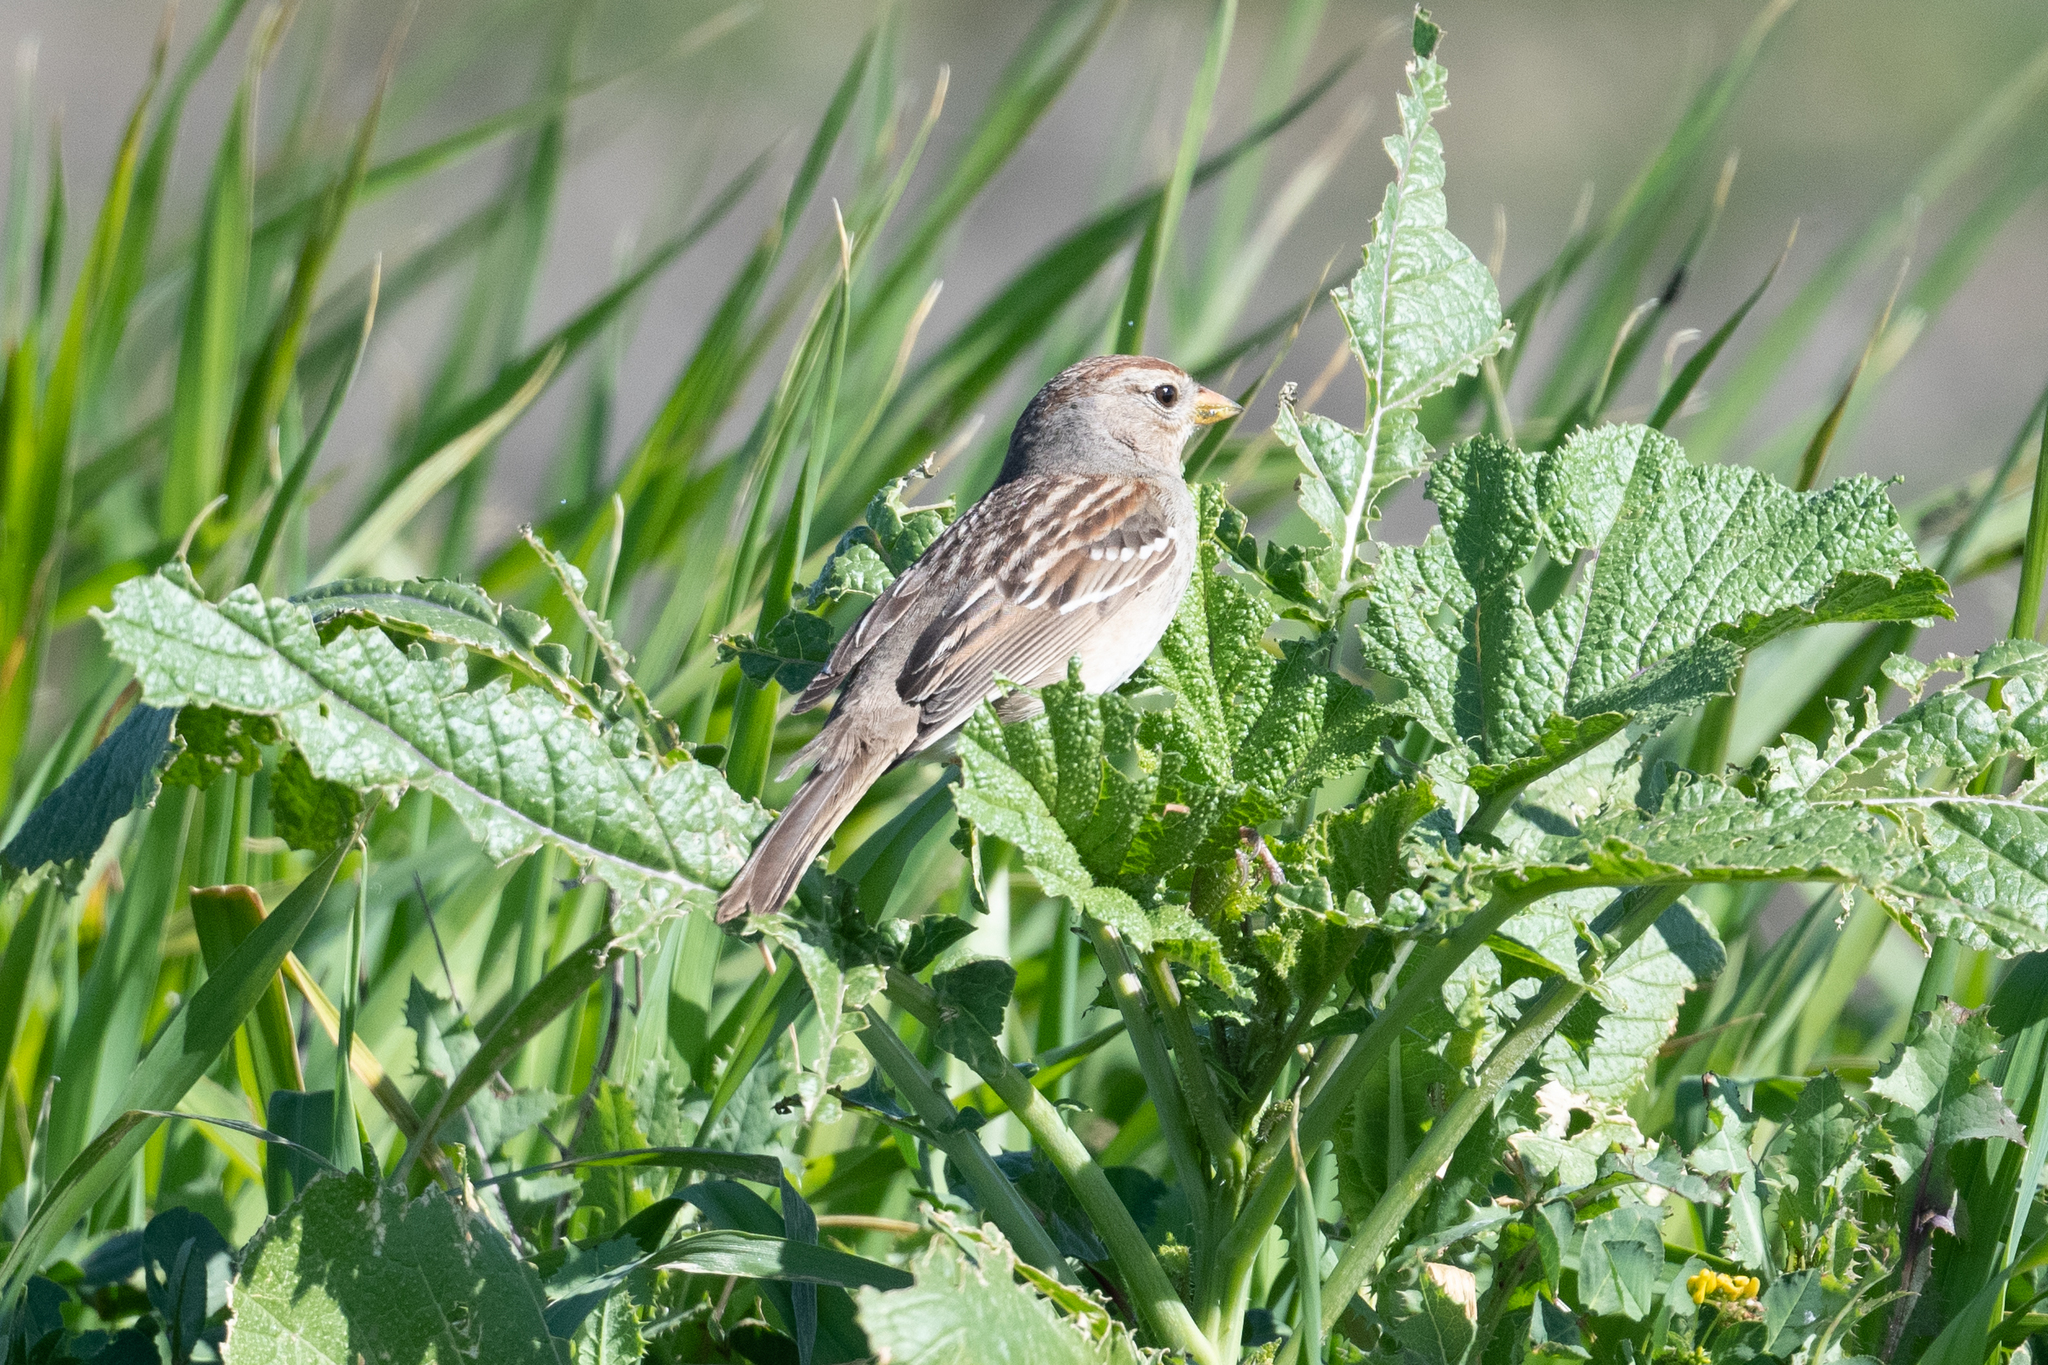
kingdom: Animalia
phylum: Chordata
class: Aves
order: Passeriformes
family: Passerellidae
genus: Zonotrichia
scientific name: Zonotrichia leucophrys
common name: White-crowned sparrow
